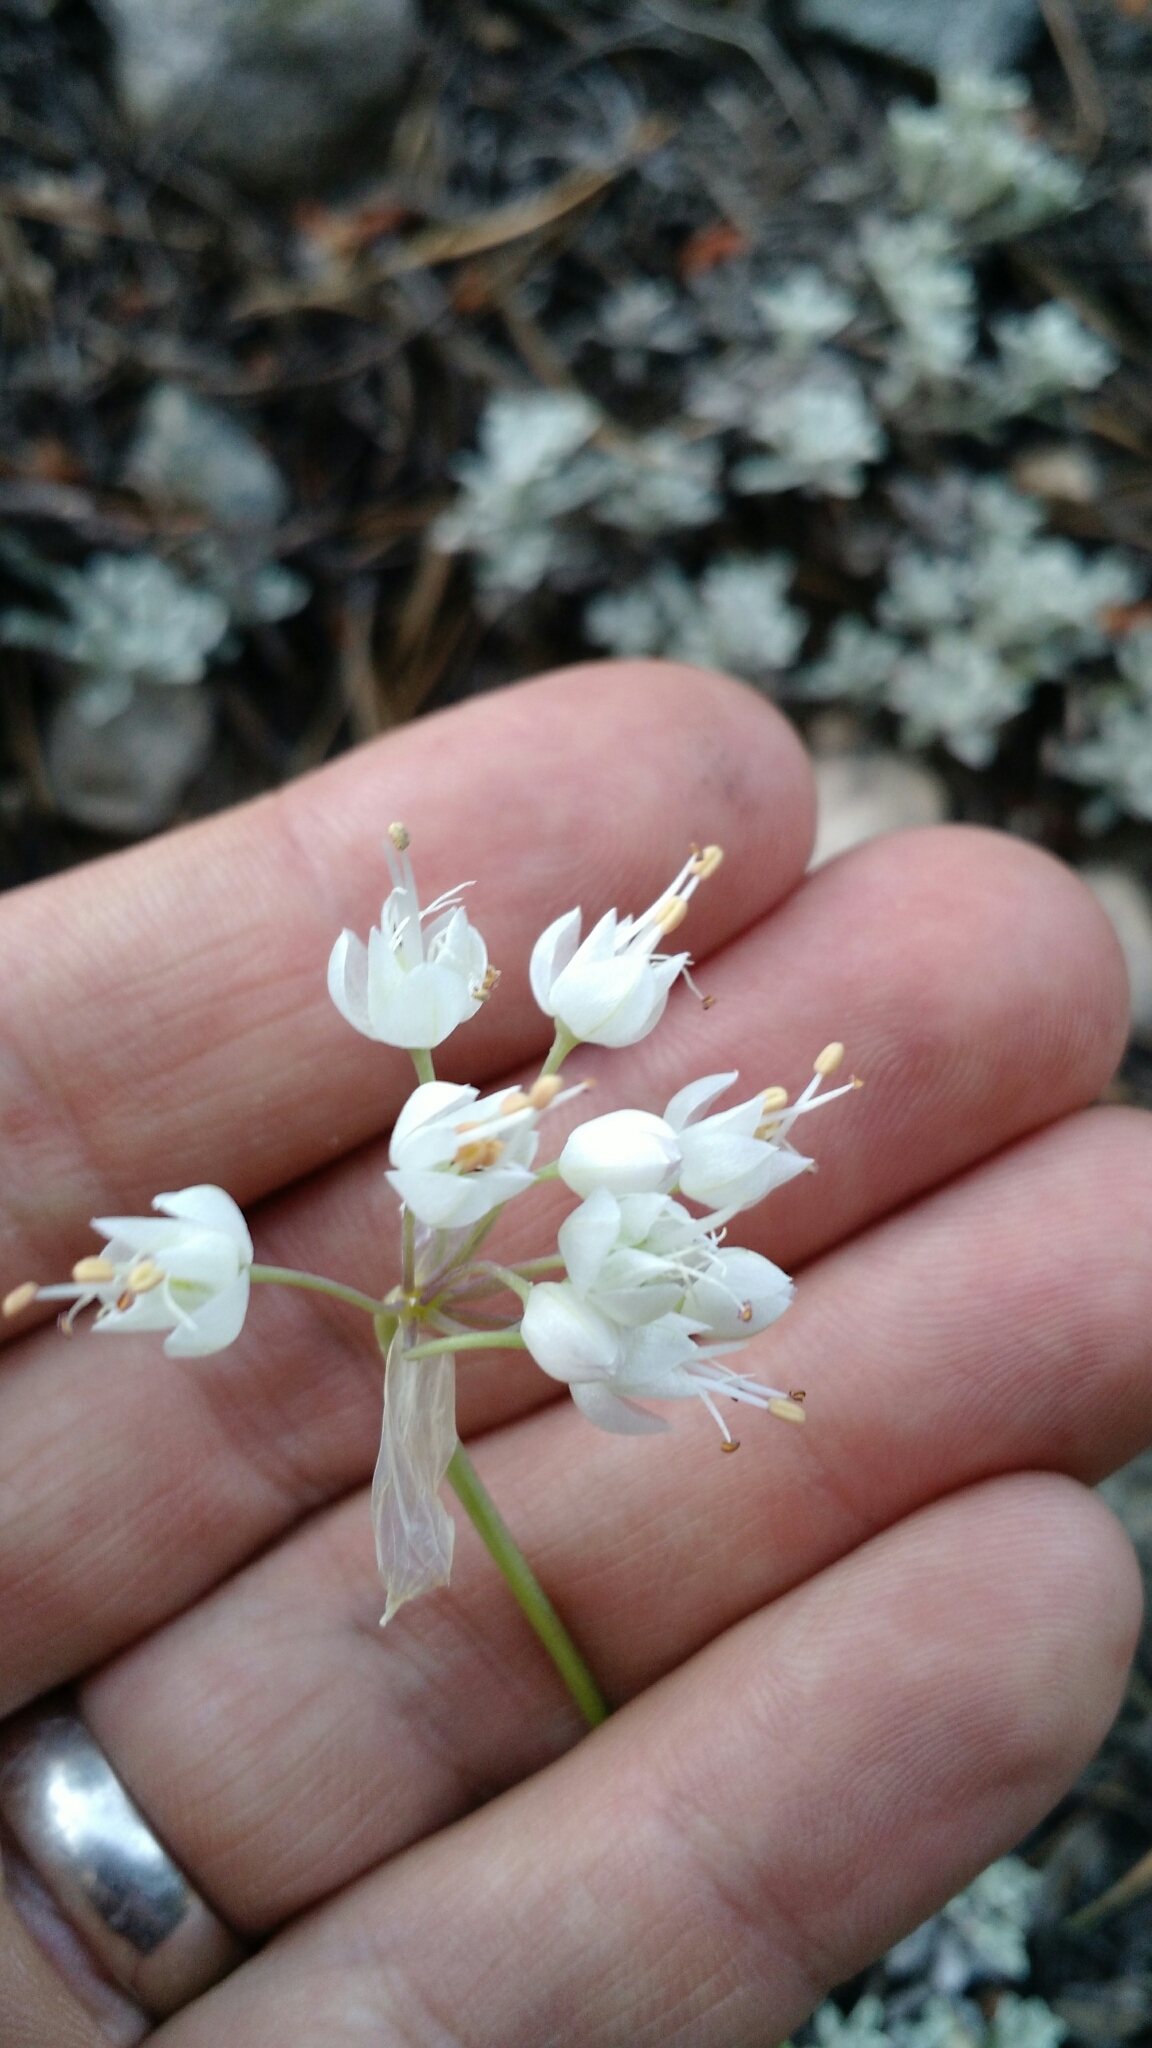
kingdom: Plantae
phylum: Tracheophyta
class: Liliopsida
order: Asparagales
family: Amaryllidaceae
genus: Allium
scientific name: Allium cernuum
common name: Nodding onion
